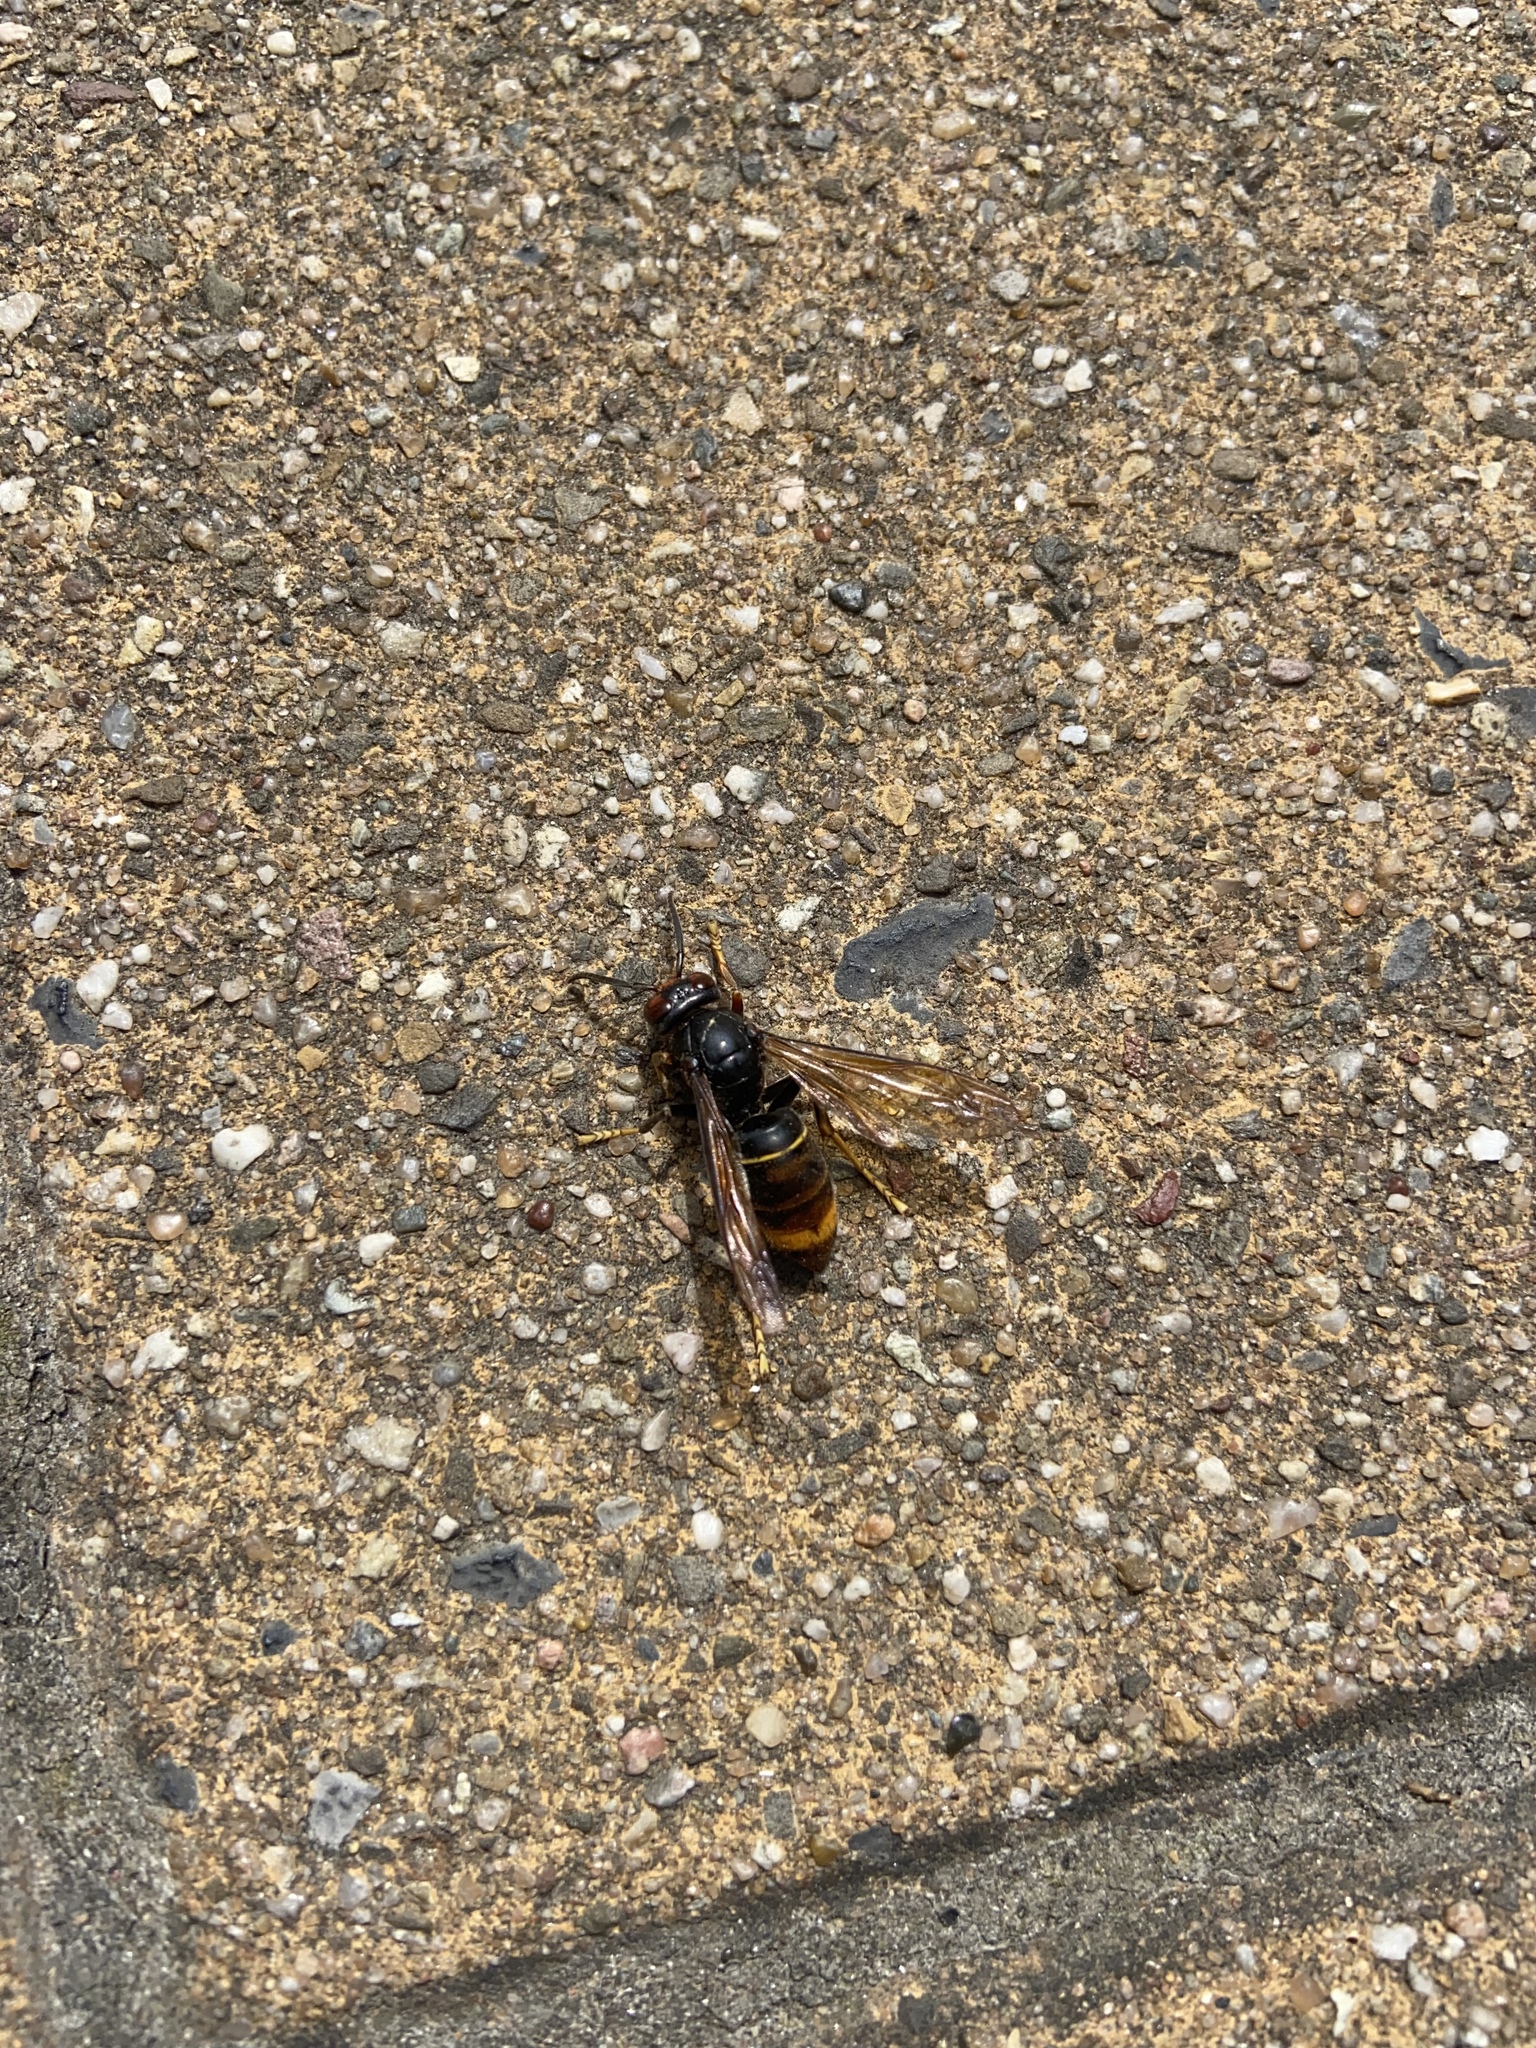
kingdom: Animalia
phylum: Arthropoda
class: Insecta
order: Hymenoptera
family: Vespidae
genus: Vespa
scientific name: Vespa velutina
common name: Asian hornet
